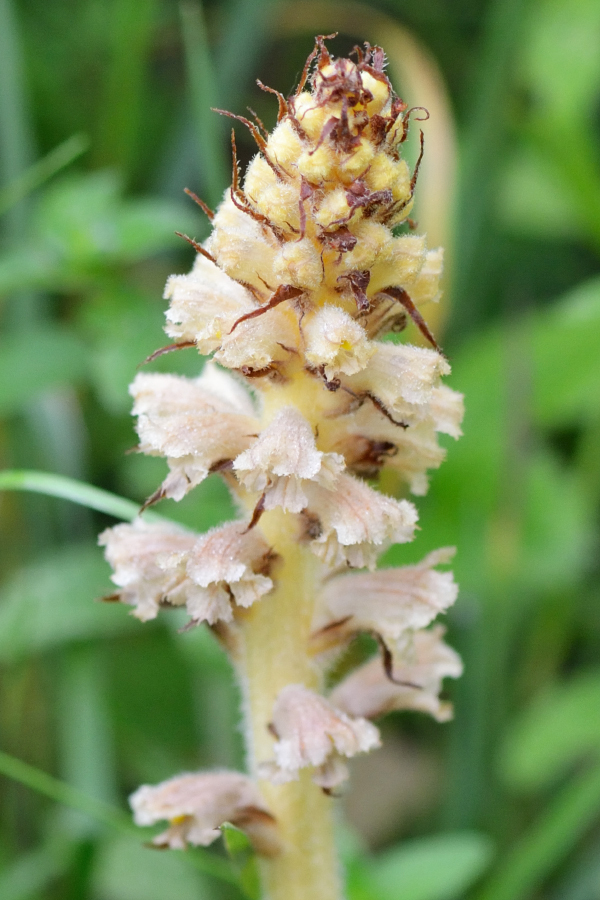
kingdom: Plantae
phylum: Tracheophyta
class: Magnoliopsida
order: Lamiales
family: Orobanchaceae
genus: Orobanche
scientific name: Orobanche alsatica
